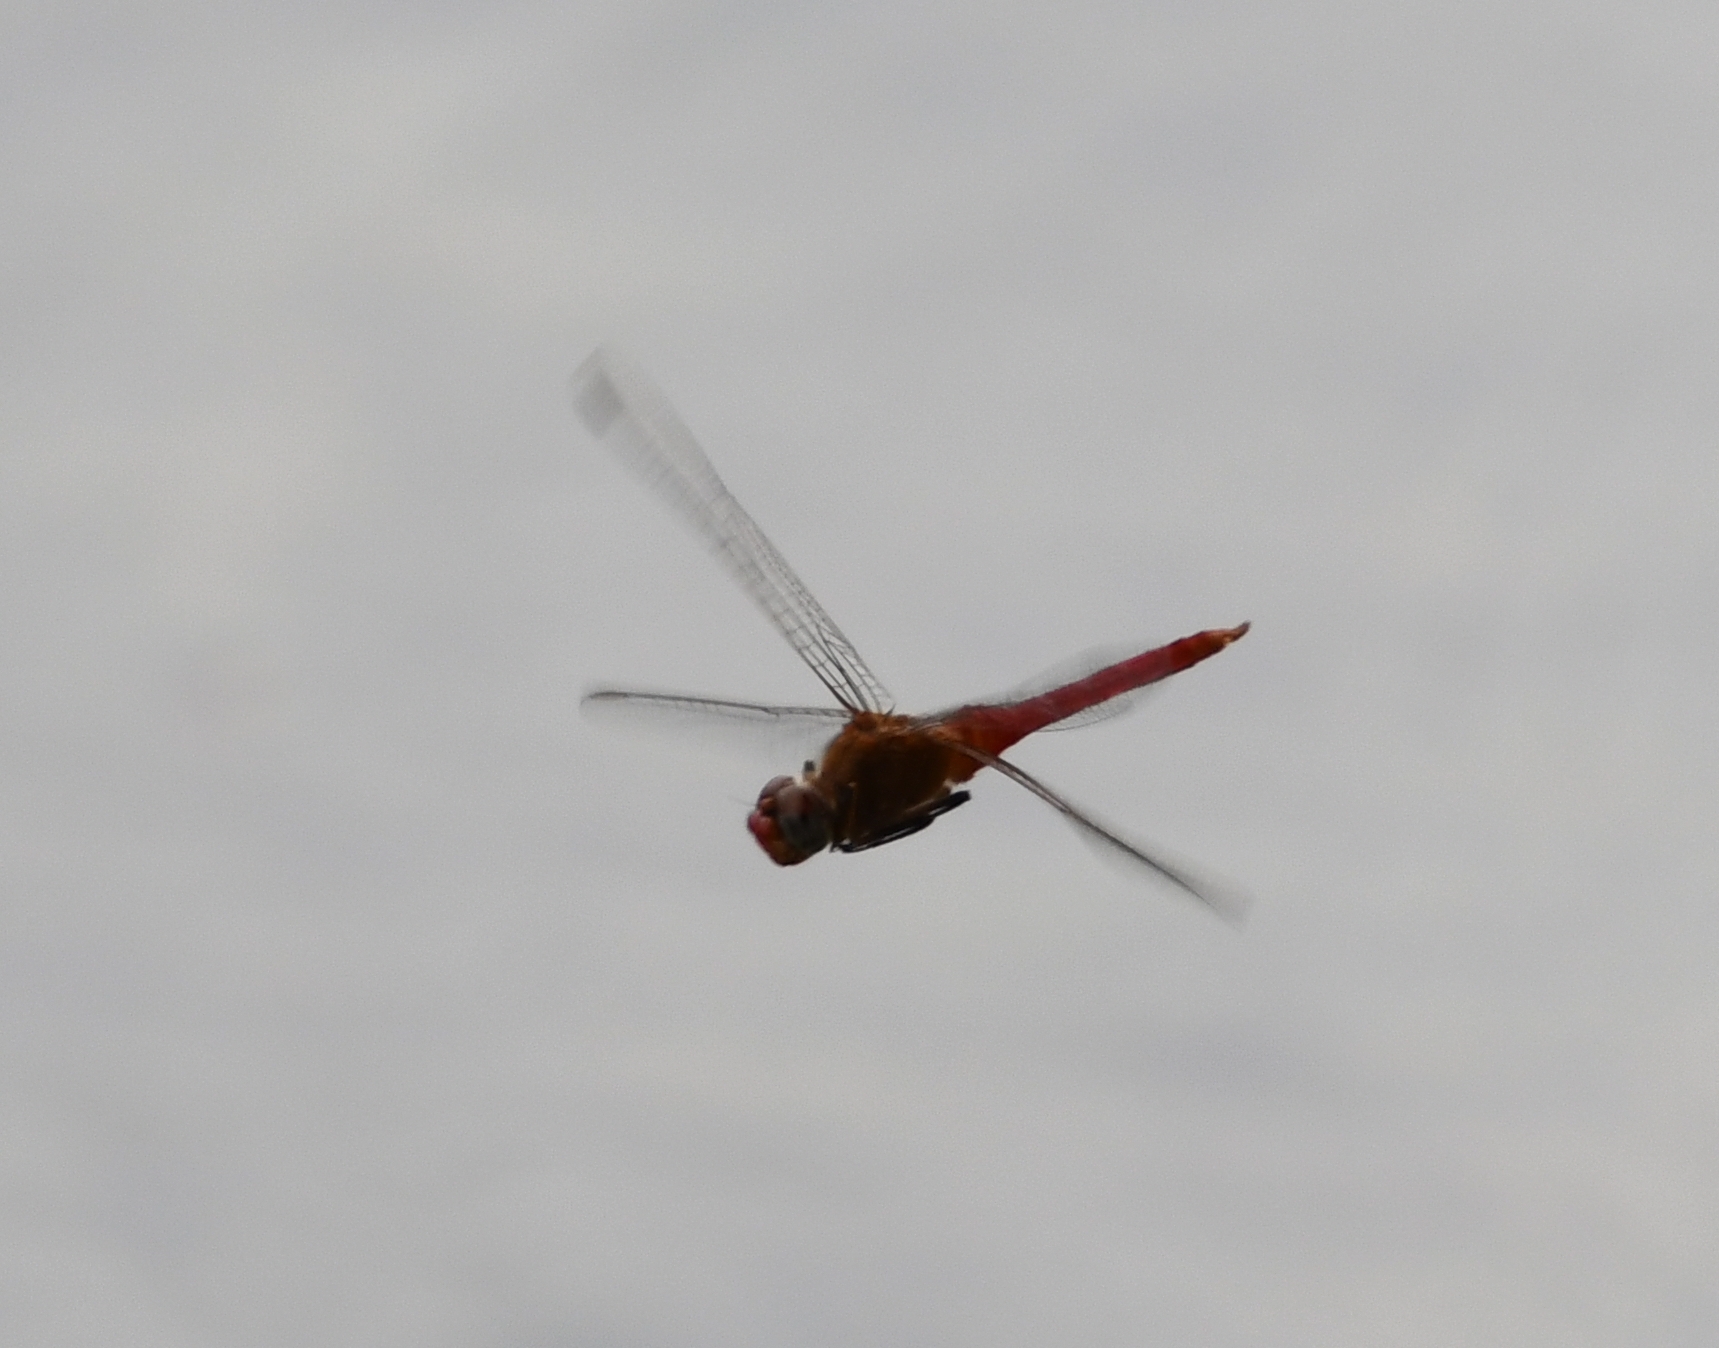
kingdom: Animalia
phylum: Arthropoda
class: Insecta
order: Odonata
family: Libellulidae
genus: Brachymesia
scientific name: Brachymesia furcata
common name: Red-taled pennant
